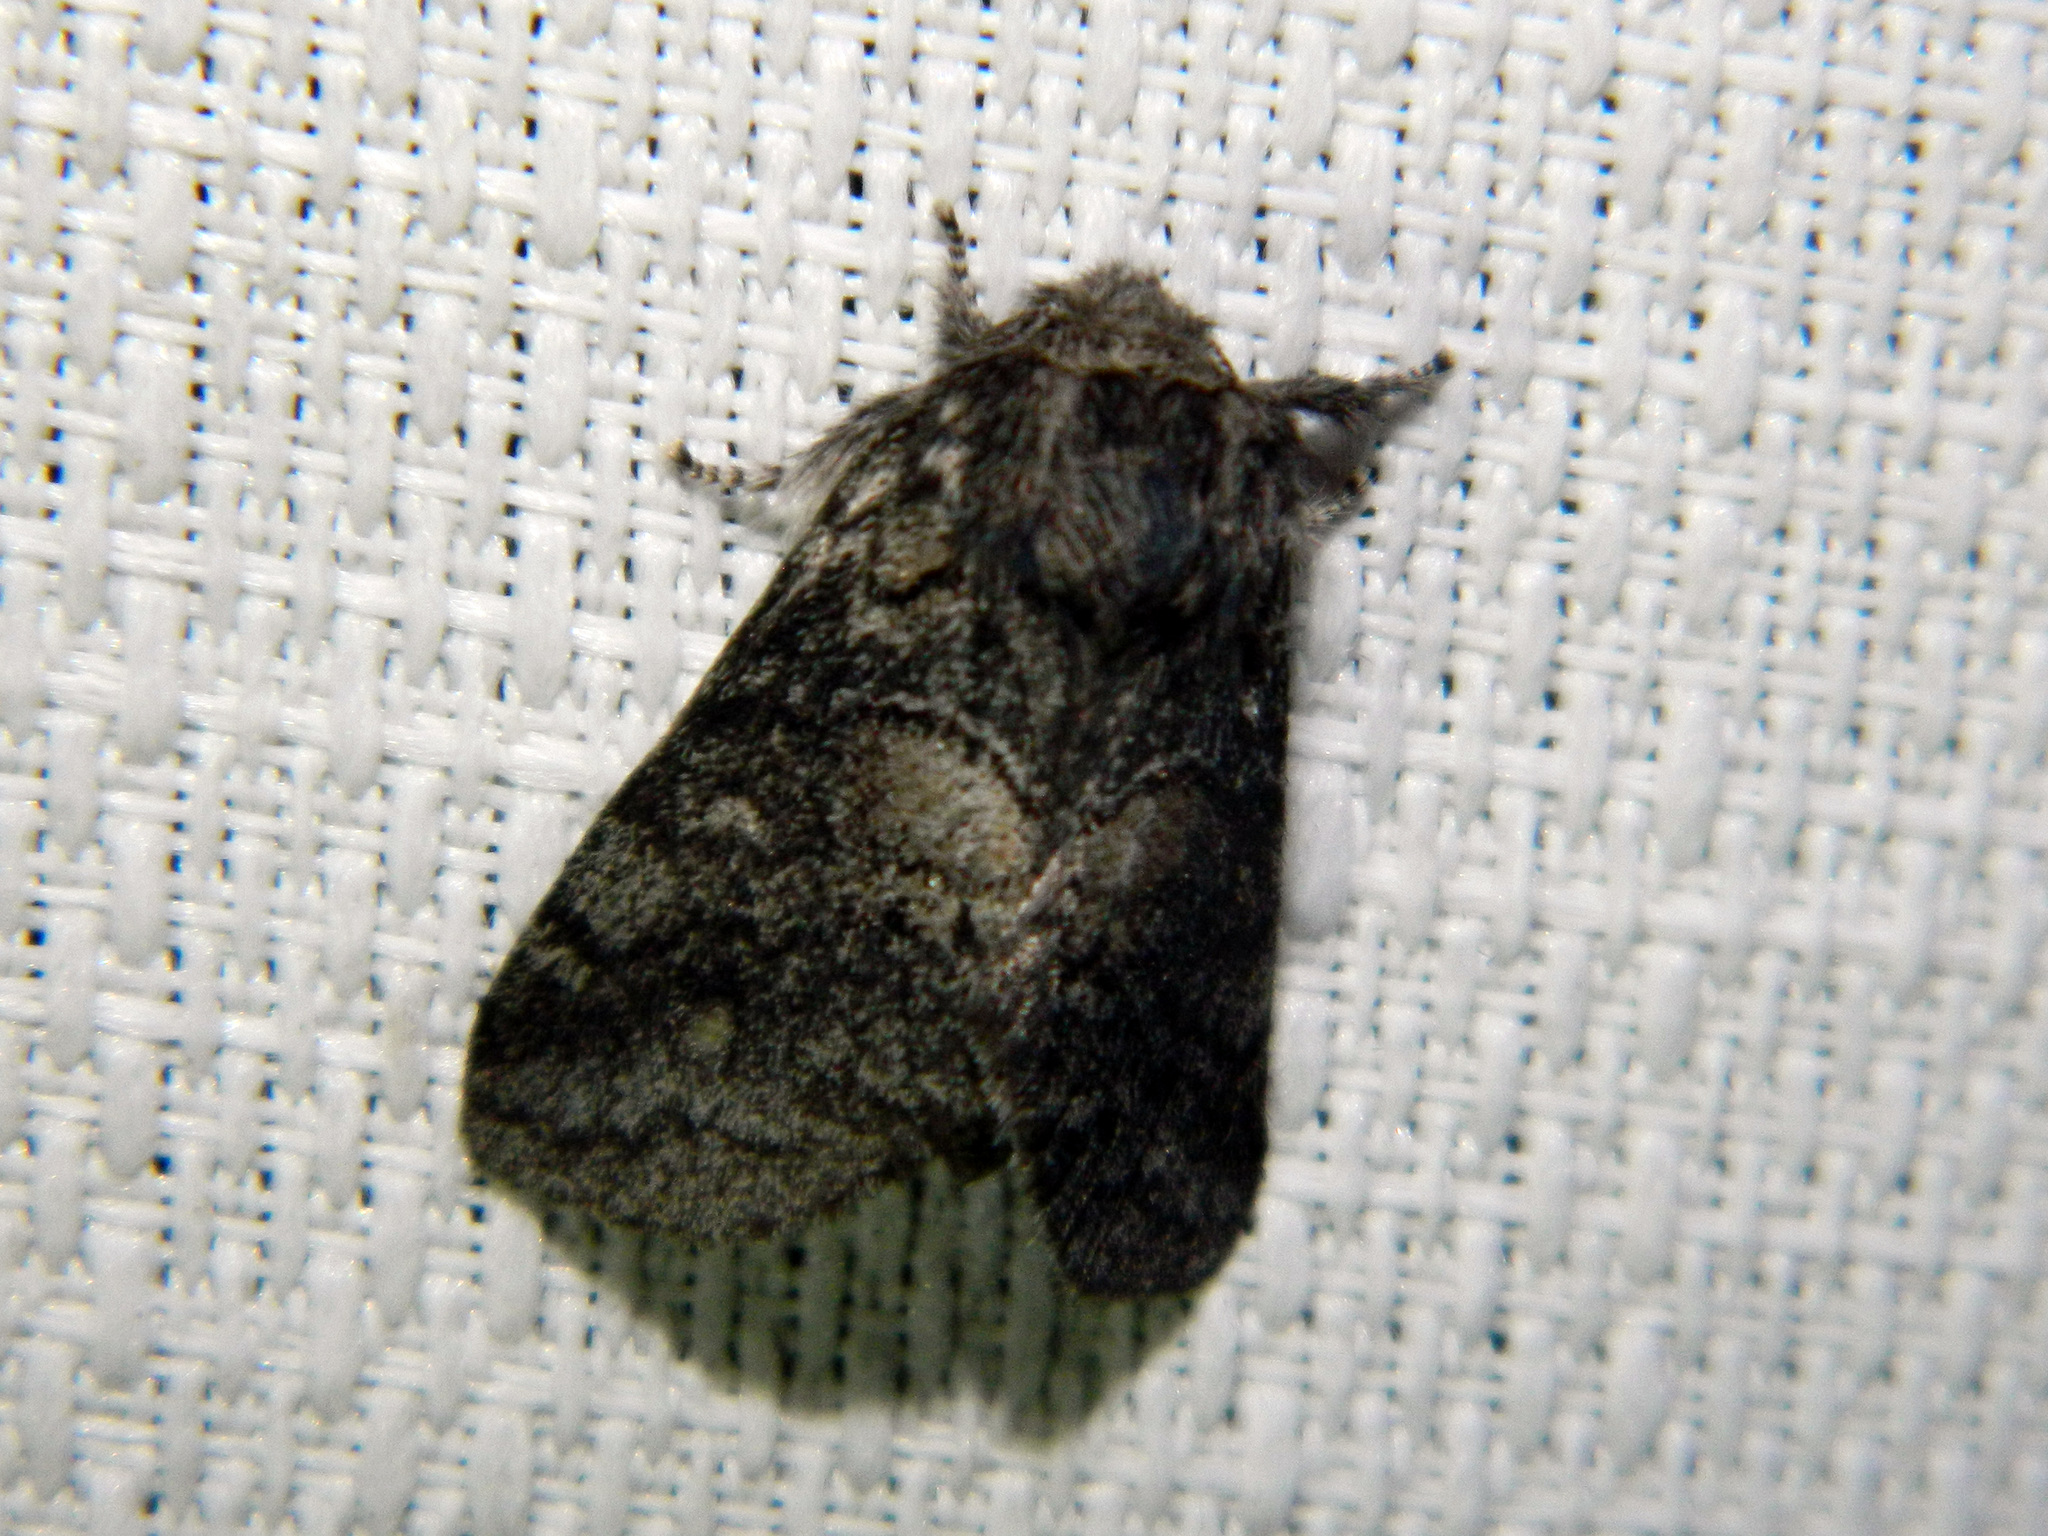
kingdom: Animalia
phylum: Arthropoda
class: Insecta
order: Lepidoptera
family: Notodontidae
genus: Gluphisia
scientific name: Gluphisia septentrionis
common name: Common gluphisia
